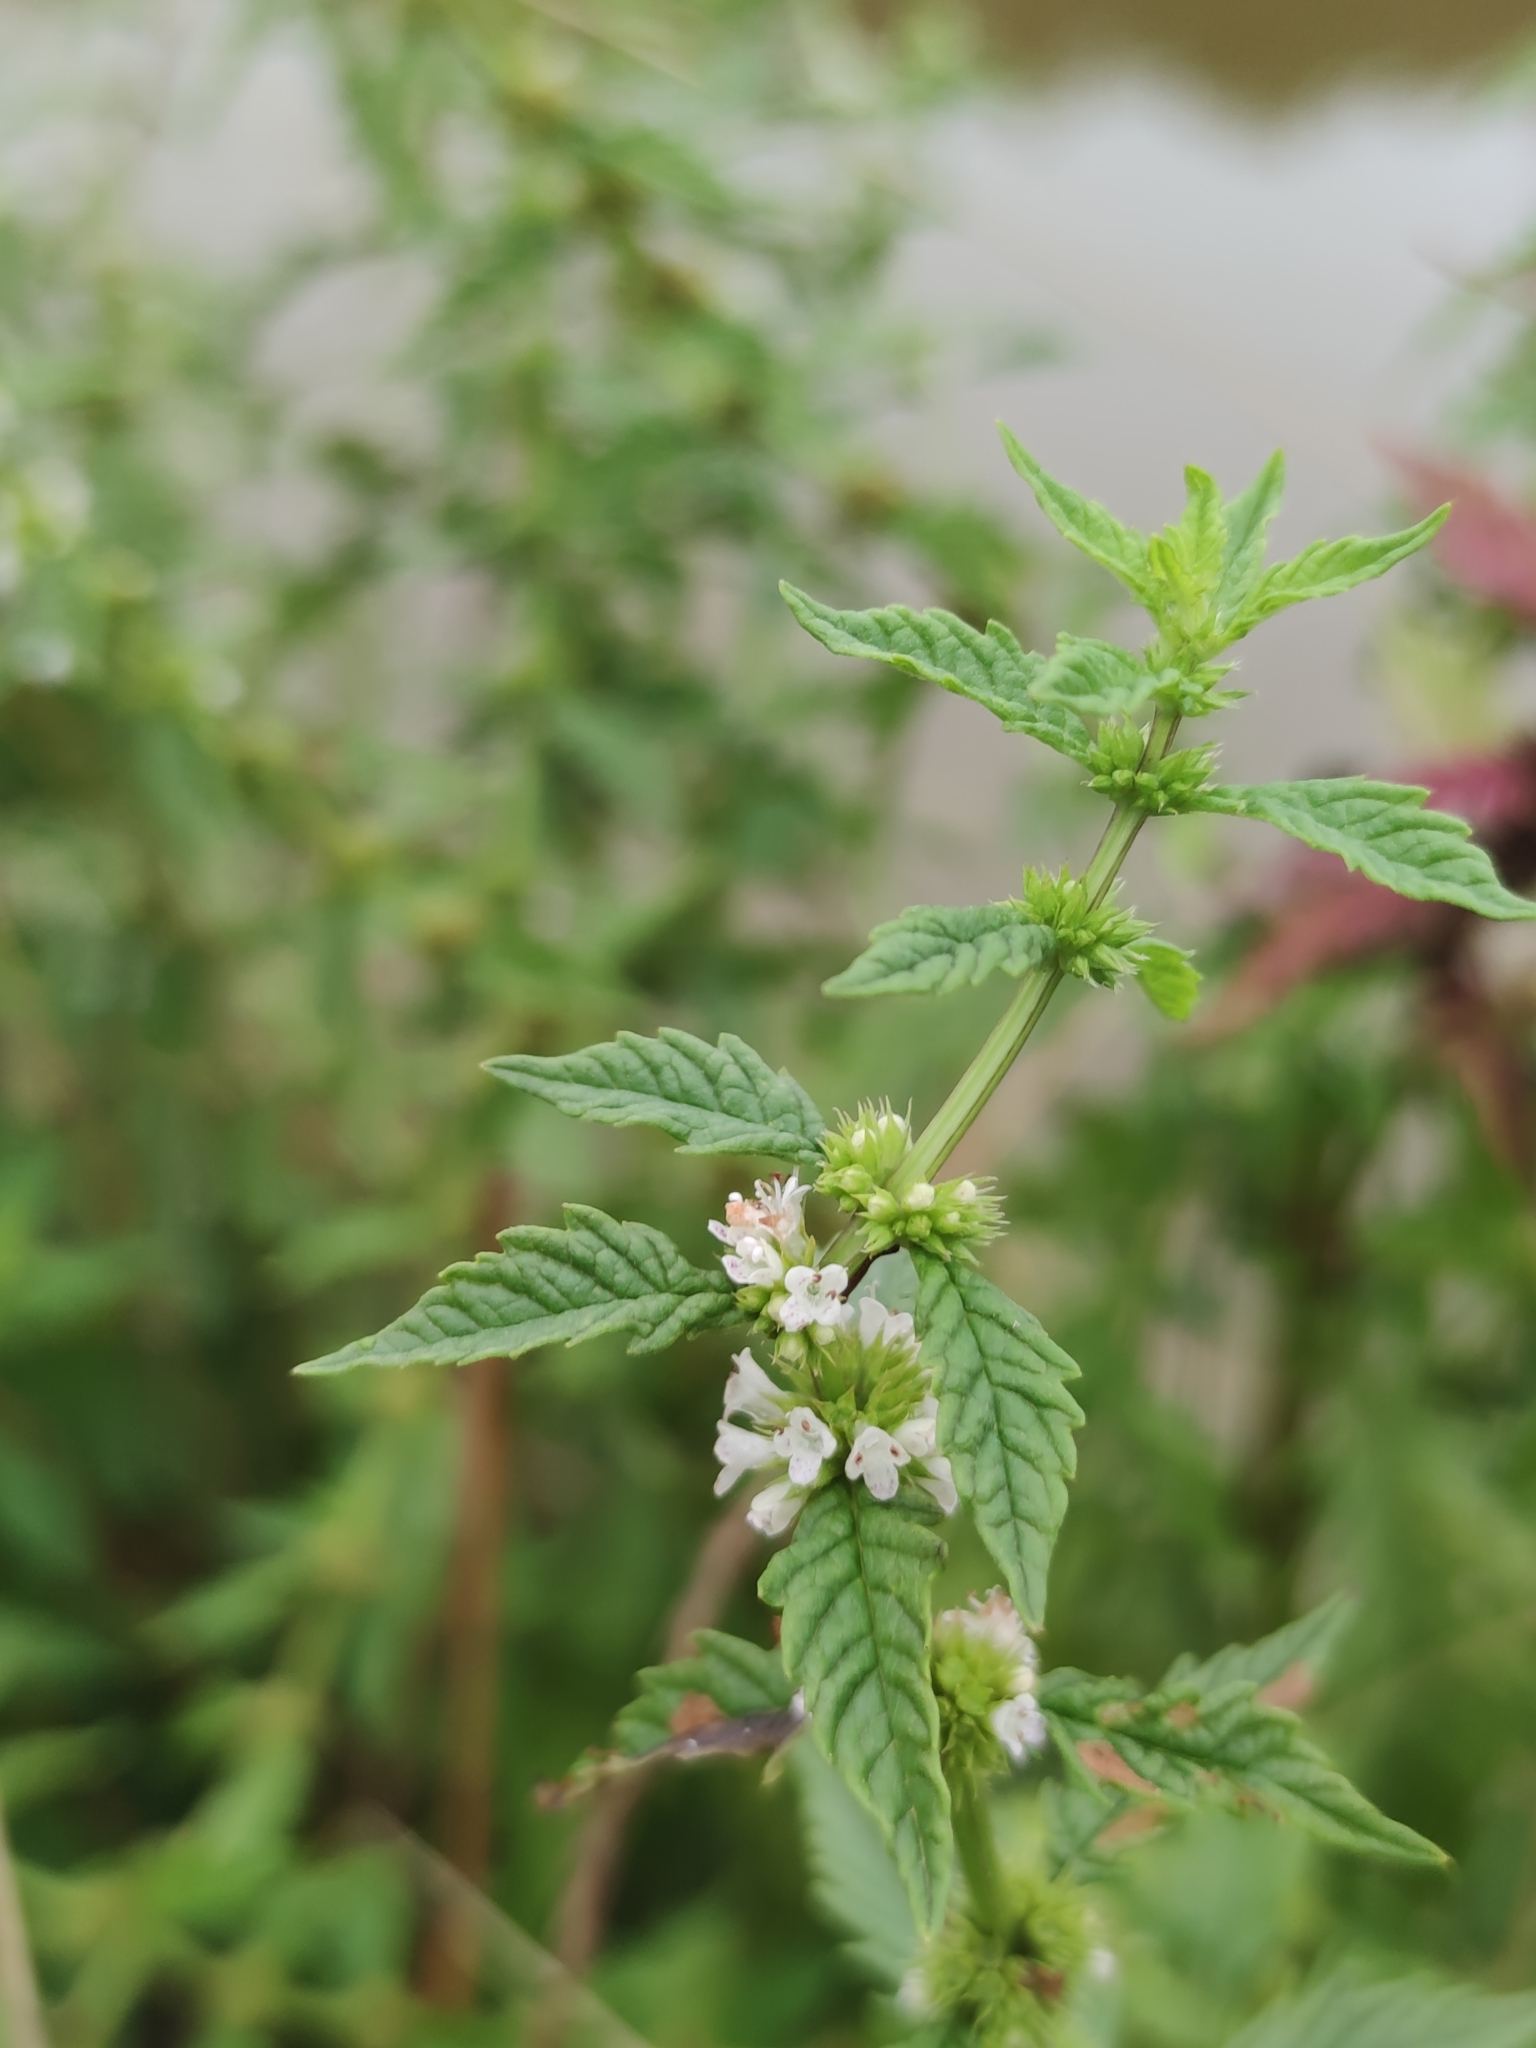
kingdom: Plantae
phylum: Tracheophyta
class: Magnoliopsida
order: Lamiales
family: Lamiaceae
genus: Lycopus
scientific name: Lycopus europaeus
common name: European bugleweed
